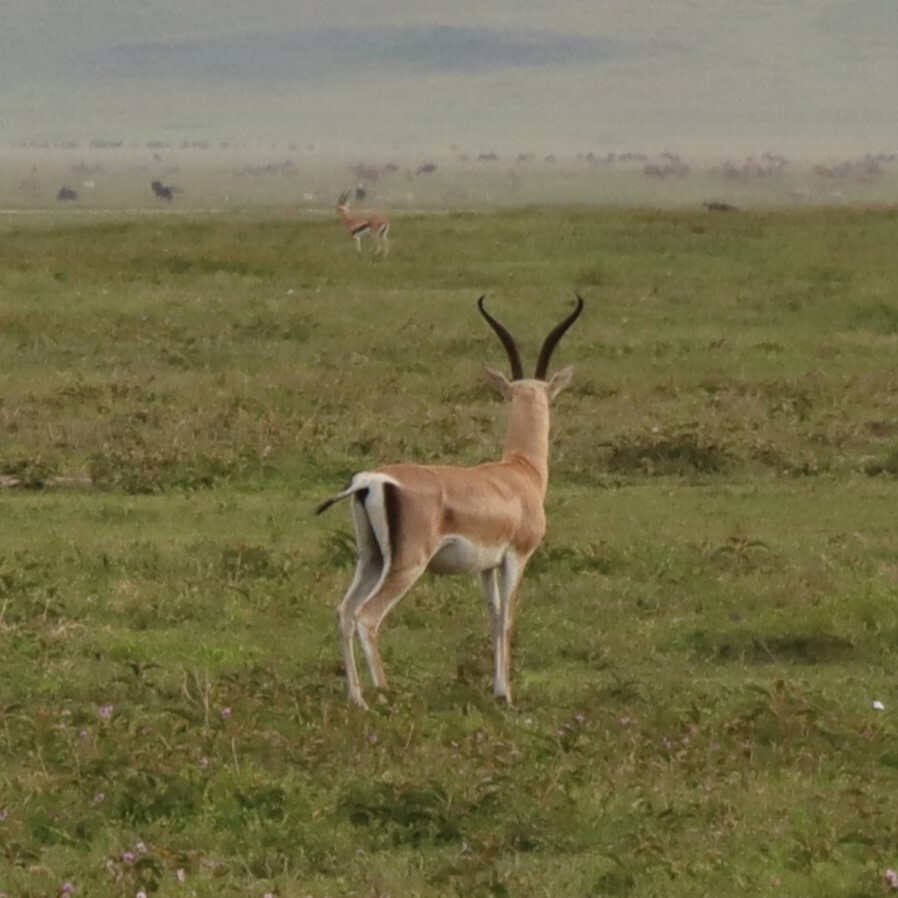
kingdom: Animalia
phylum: Chordata
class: Mammalia
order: Artiodactyla
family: Bovidae
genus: Nanger
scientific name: Nanger granti
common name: Grant's gazelle
